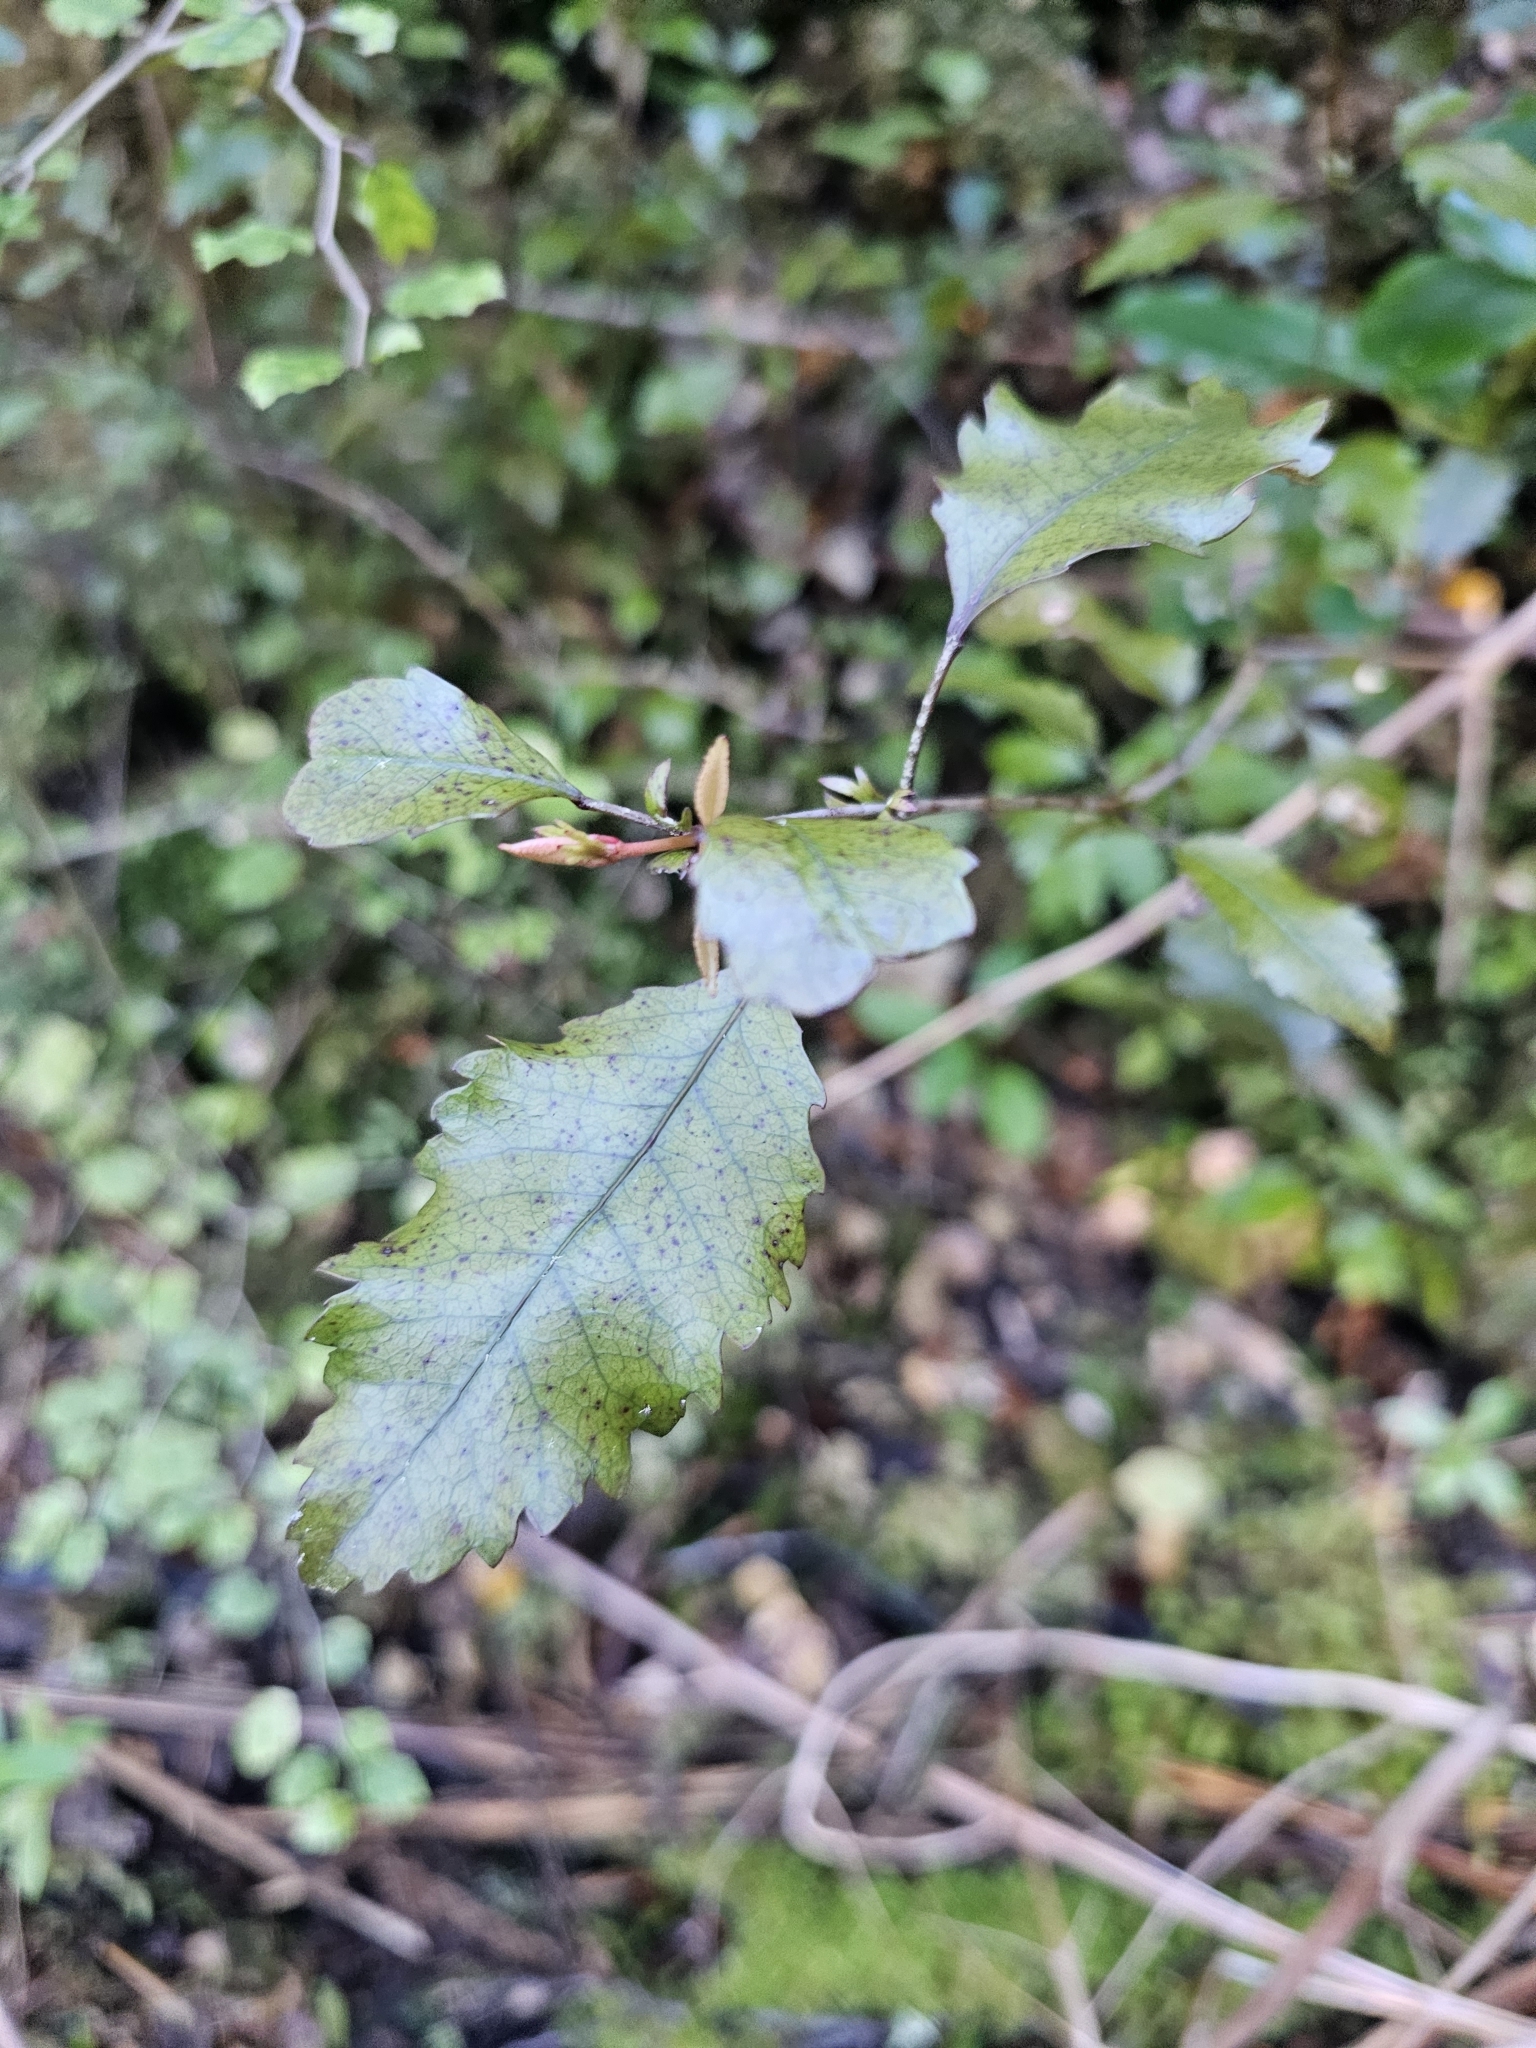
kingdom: Plantae
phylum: Tracheophyta
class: Magnoliopsida
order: Oxalidales
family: Cunoniaceae
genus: Pterophylla
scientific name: Pterophylla racemosa
